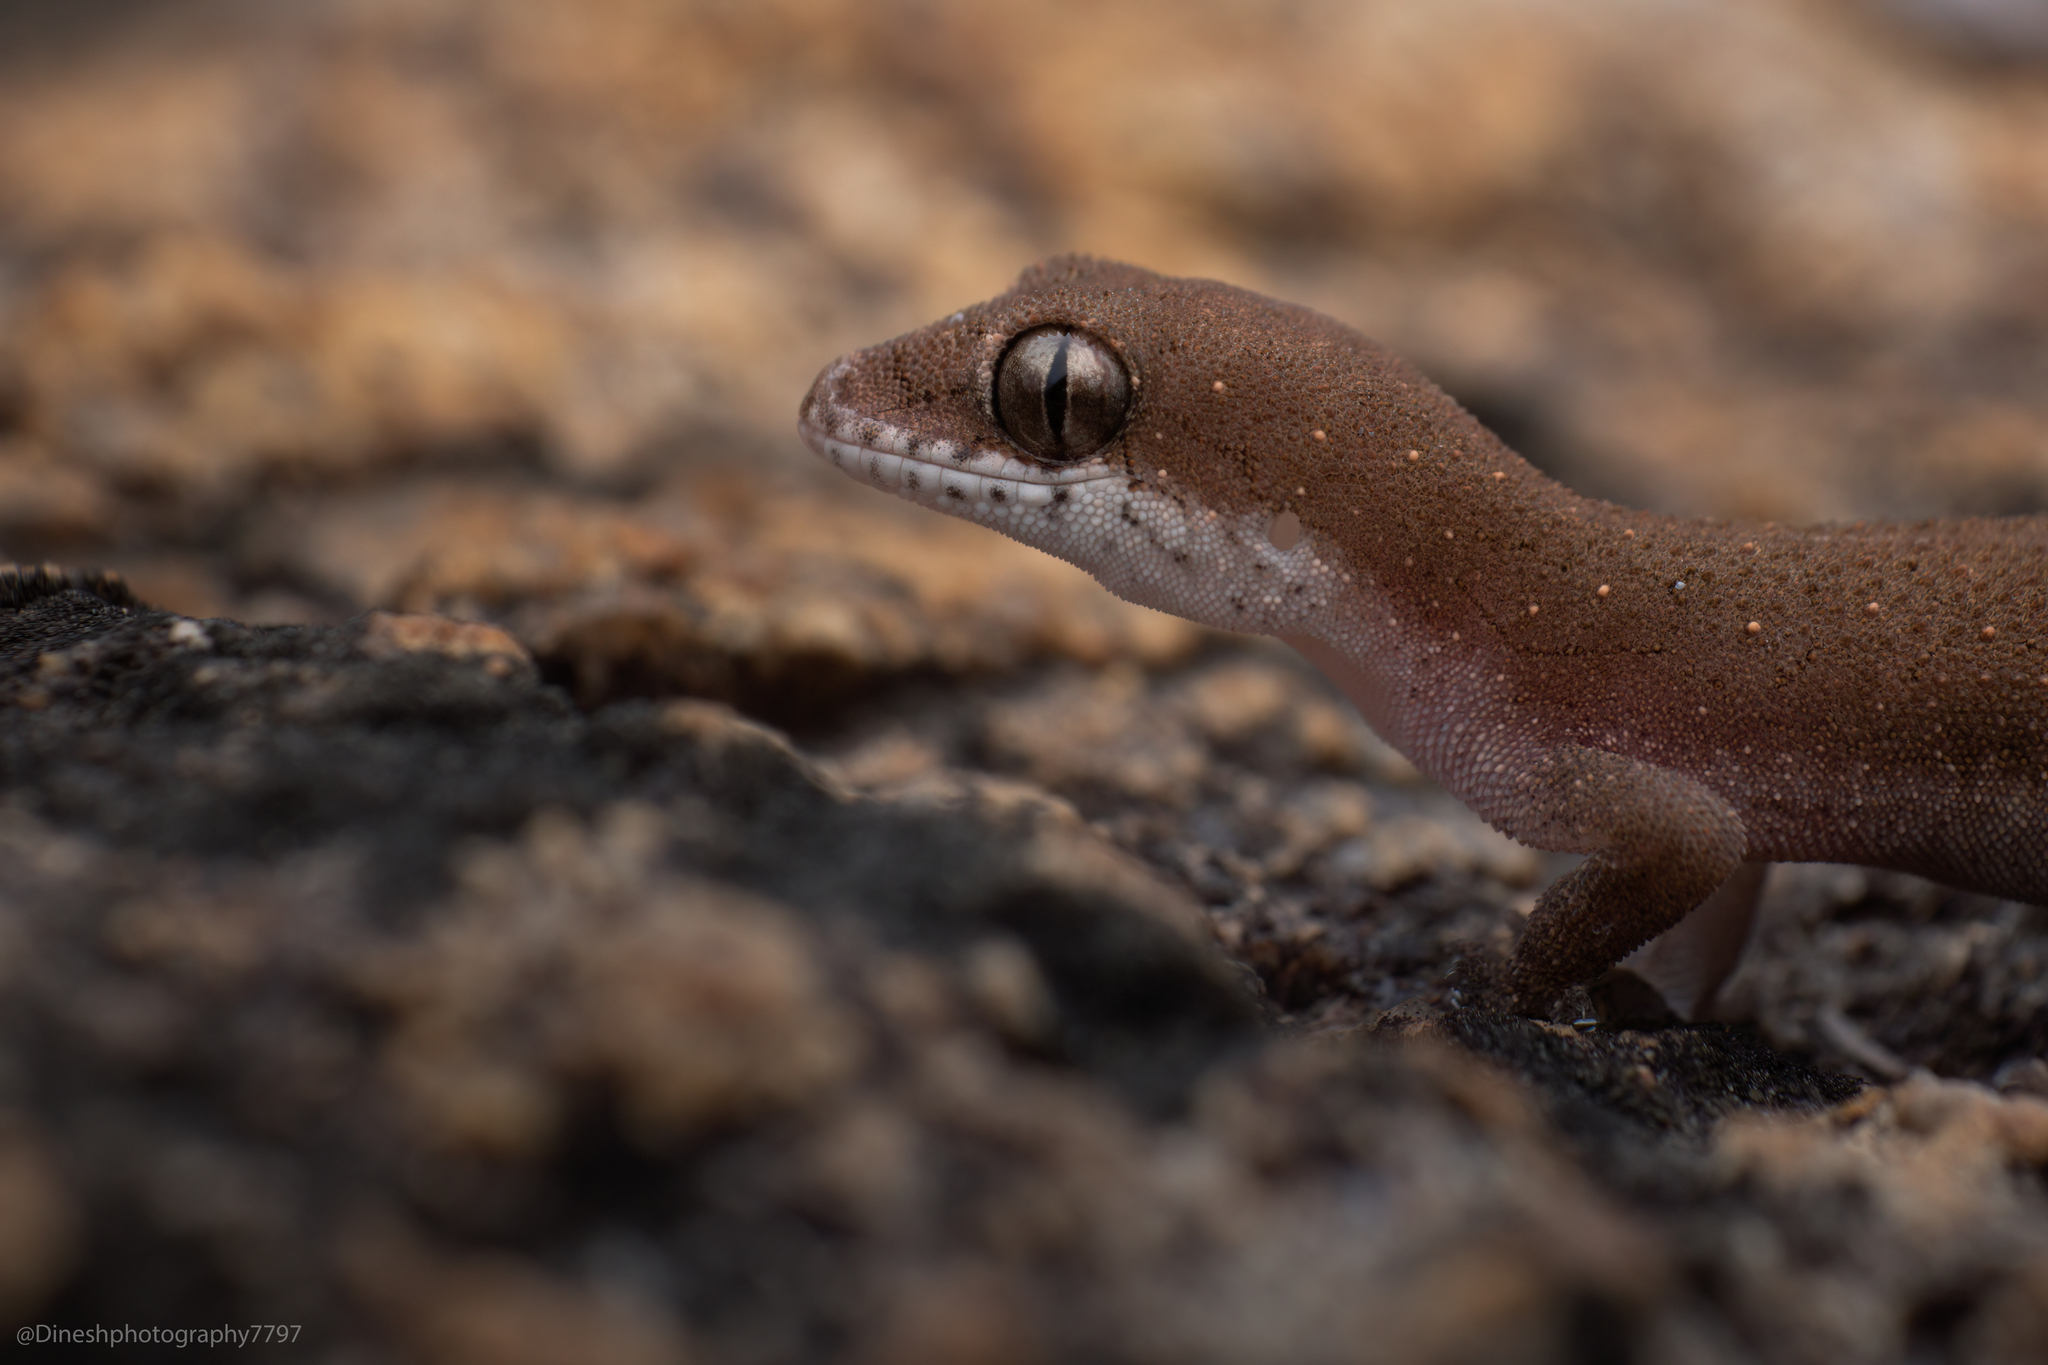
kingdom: Animalia
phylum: Chordata
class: Squamata
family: Gekkonidae
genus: Hemidactylus
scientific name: Hemidactylus reticulatus
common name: Reticulate leaf-toed gecko
